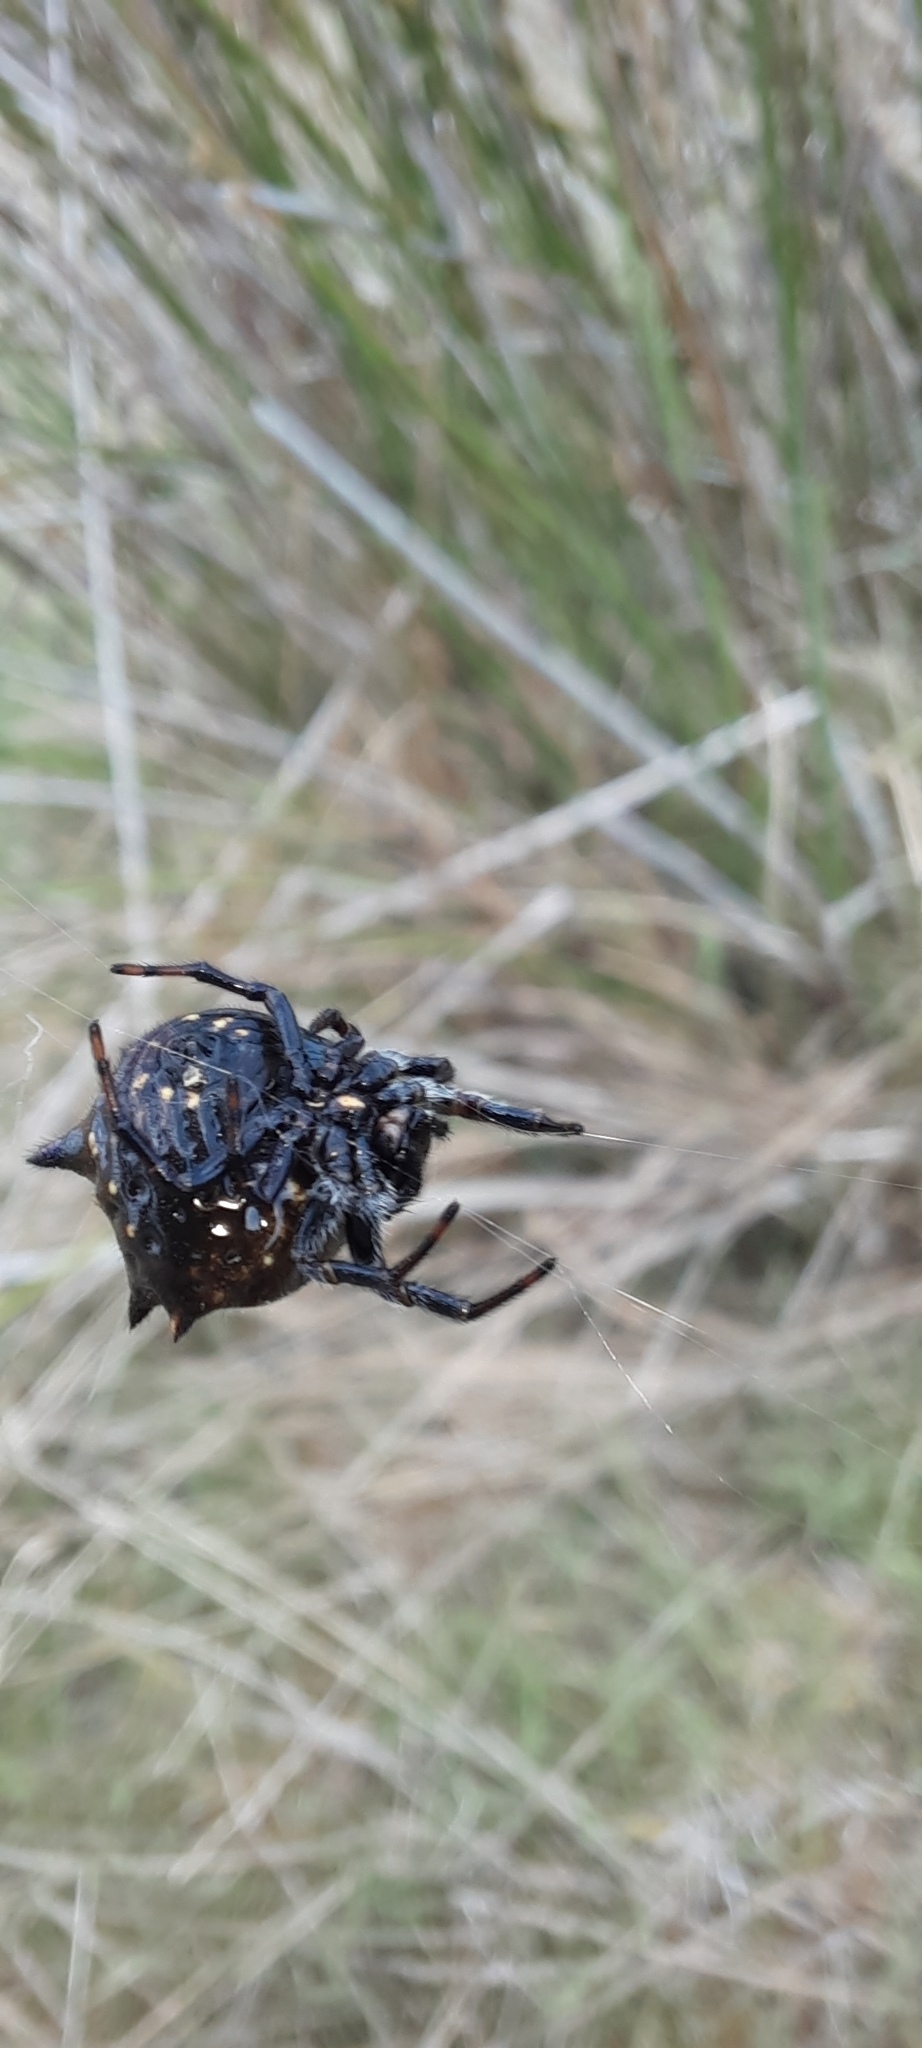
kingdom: Animalia
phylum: Arthropoda
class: Arachnida
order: Araneae
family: Araneidae
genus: Austracantha
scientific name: Austracantha minax
